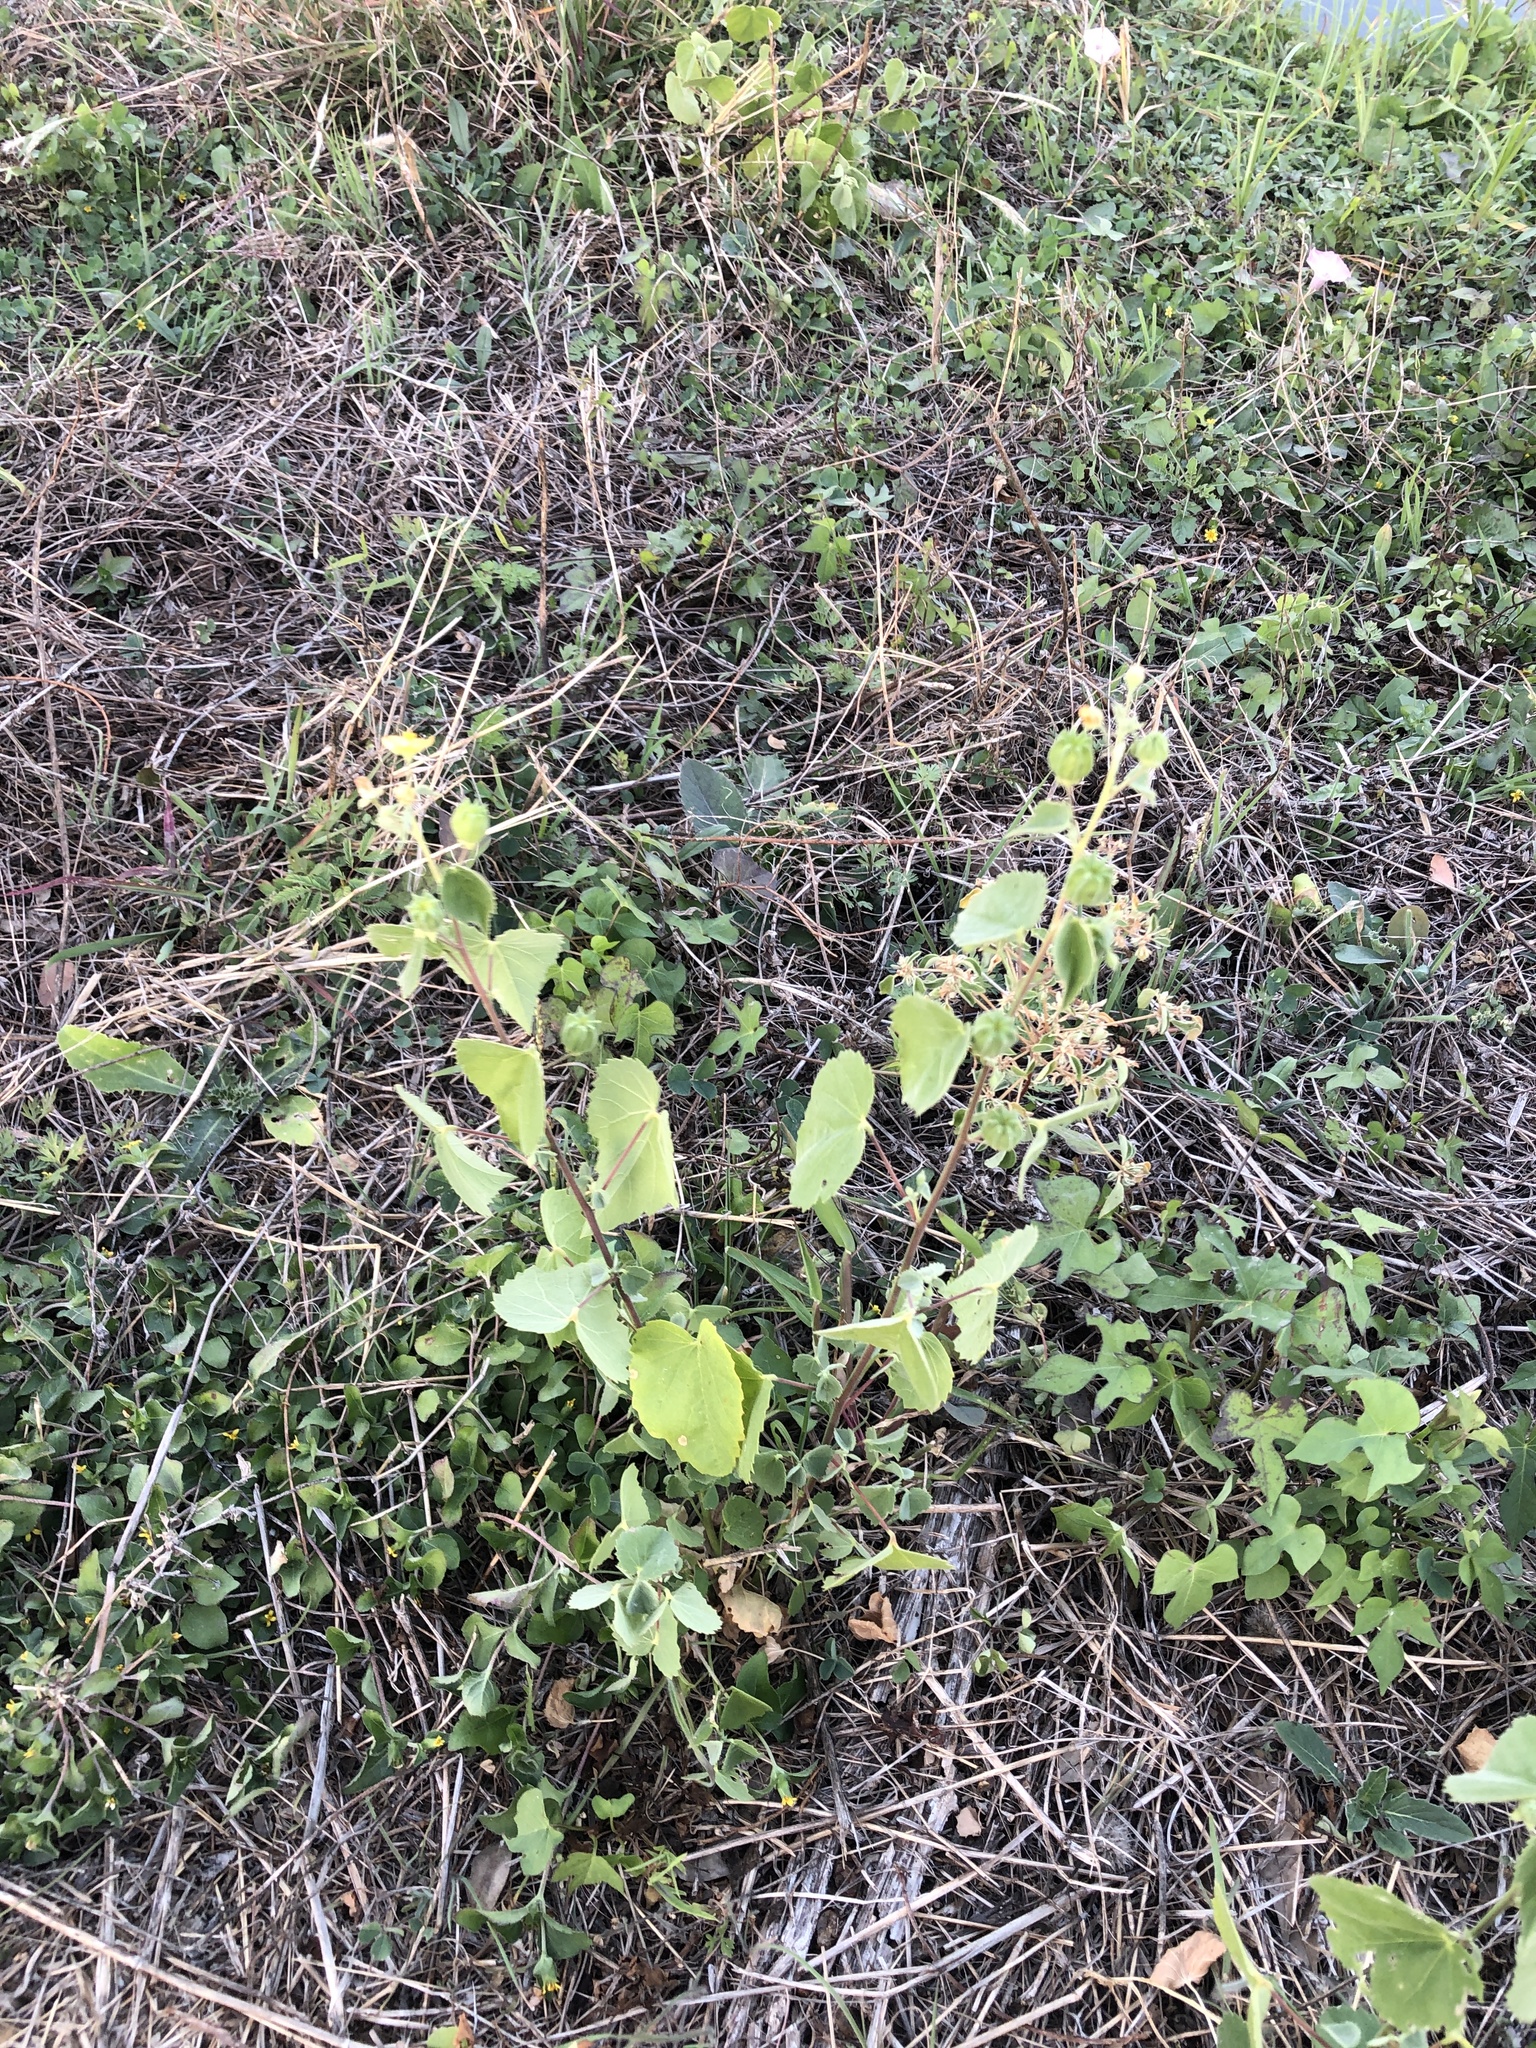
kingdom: Plantae
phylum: Tracheophyta
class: Magnoliopsida
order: Malvales
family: Malvaceae
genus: Abutilon
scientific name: Abutilon fruticosum
